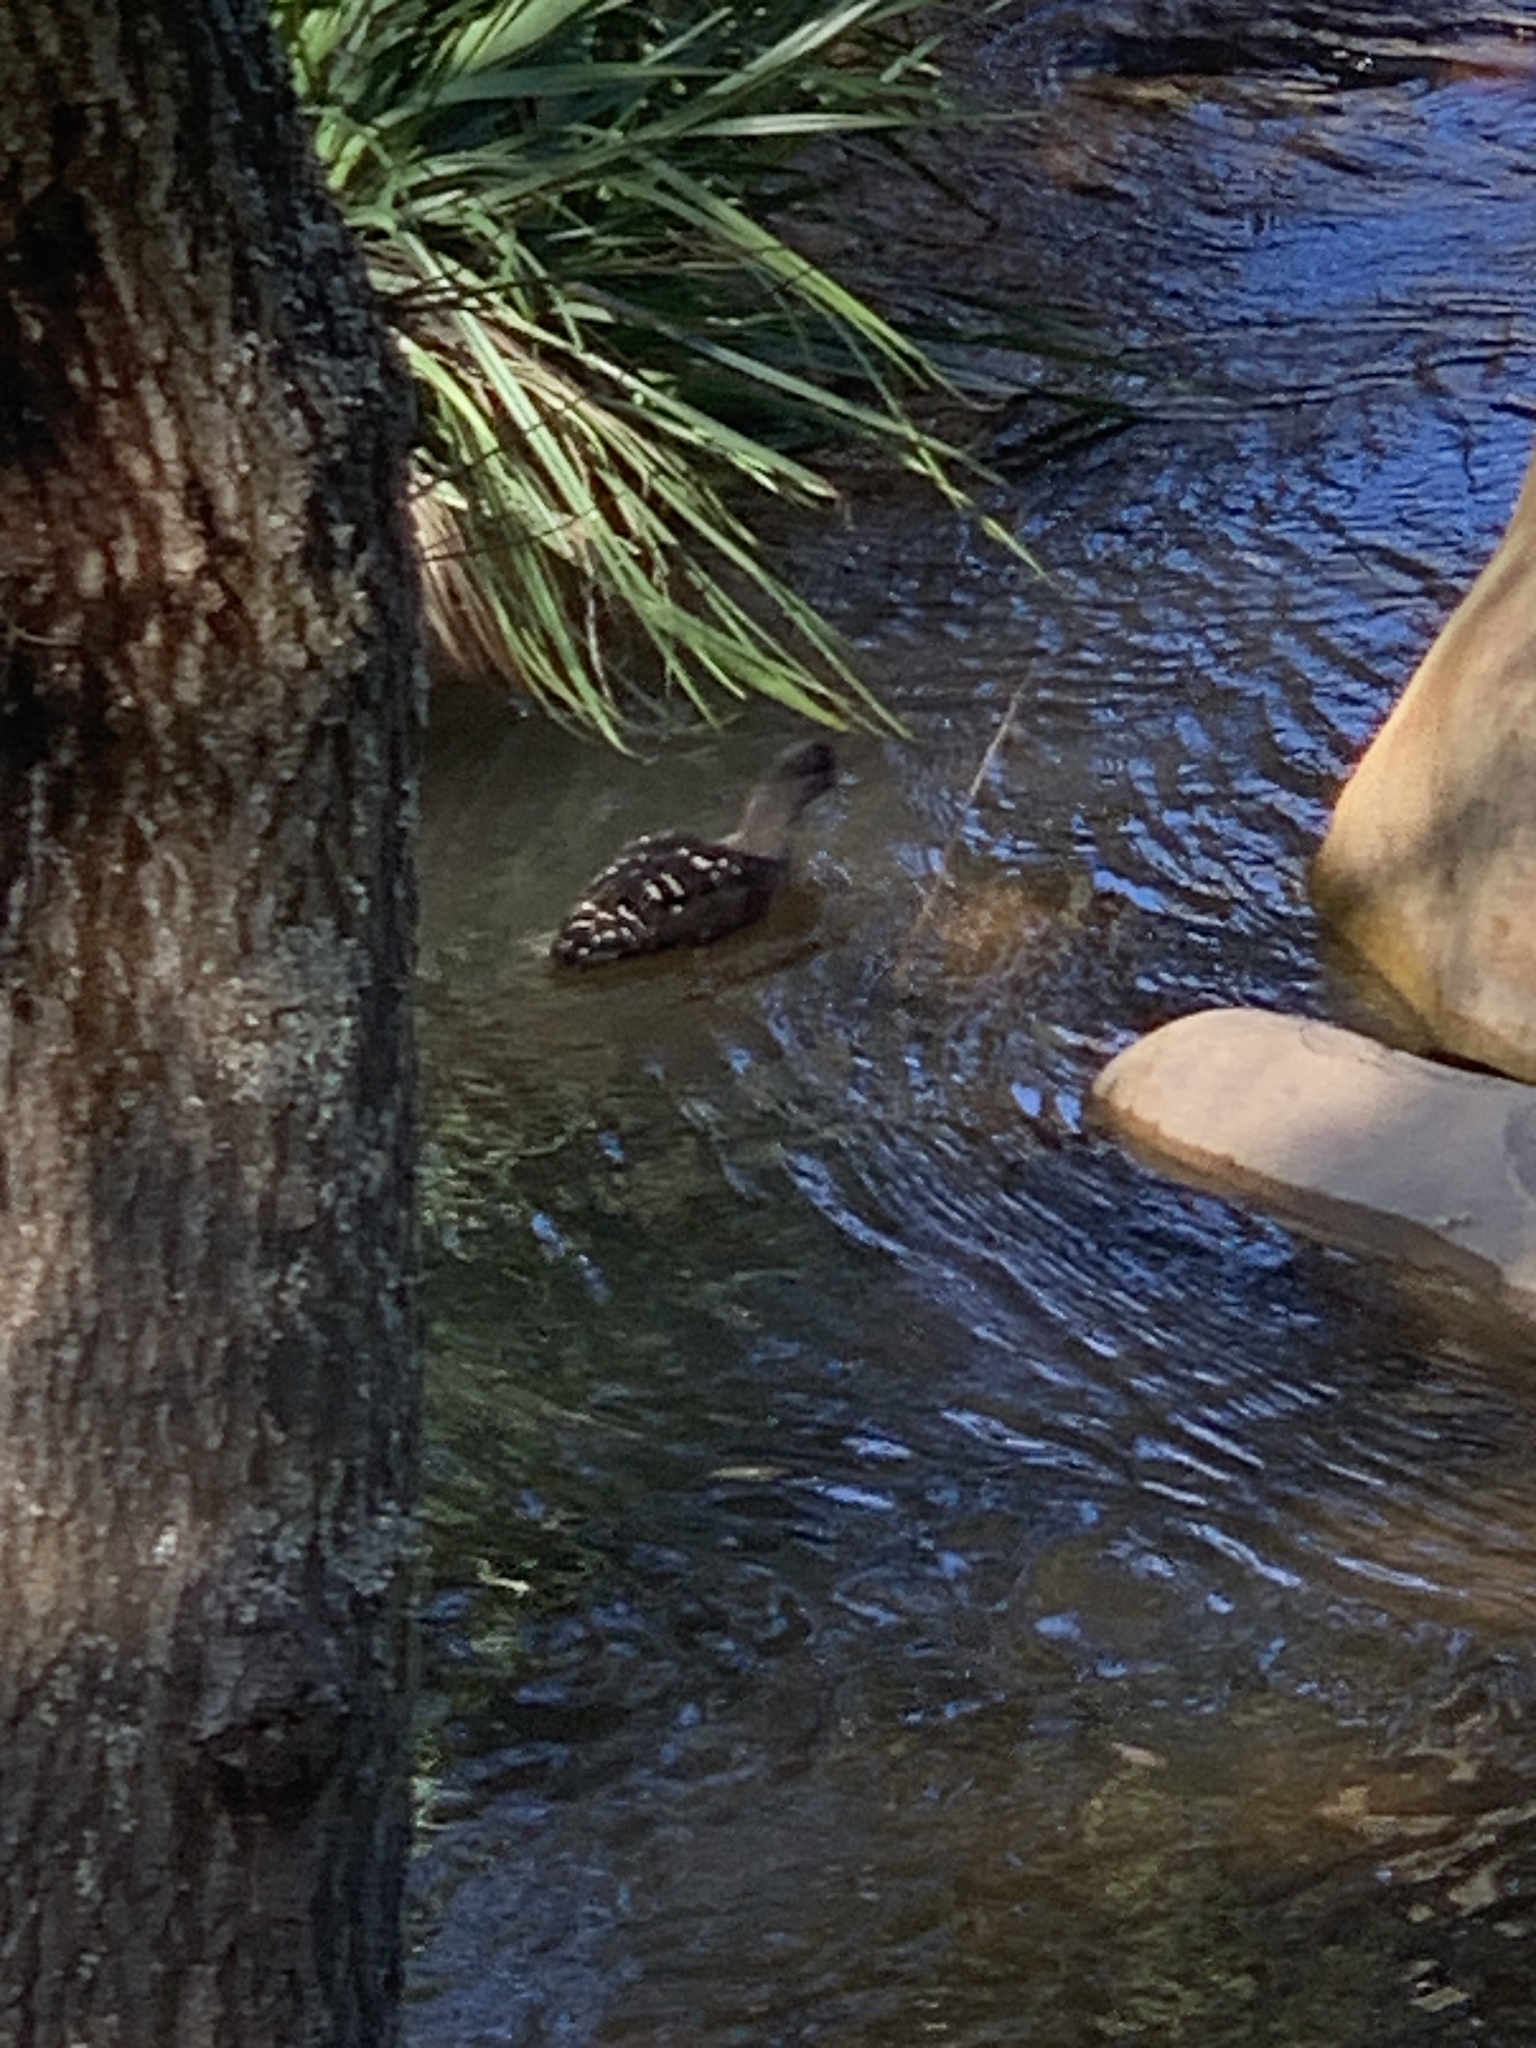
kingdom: Animalia
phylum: Chordata
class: Aves
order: Anseriformes
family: Anatidae
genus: Anas
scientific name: Anas sparsa
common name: African black duck
